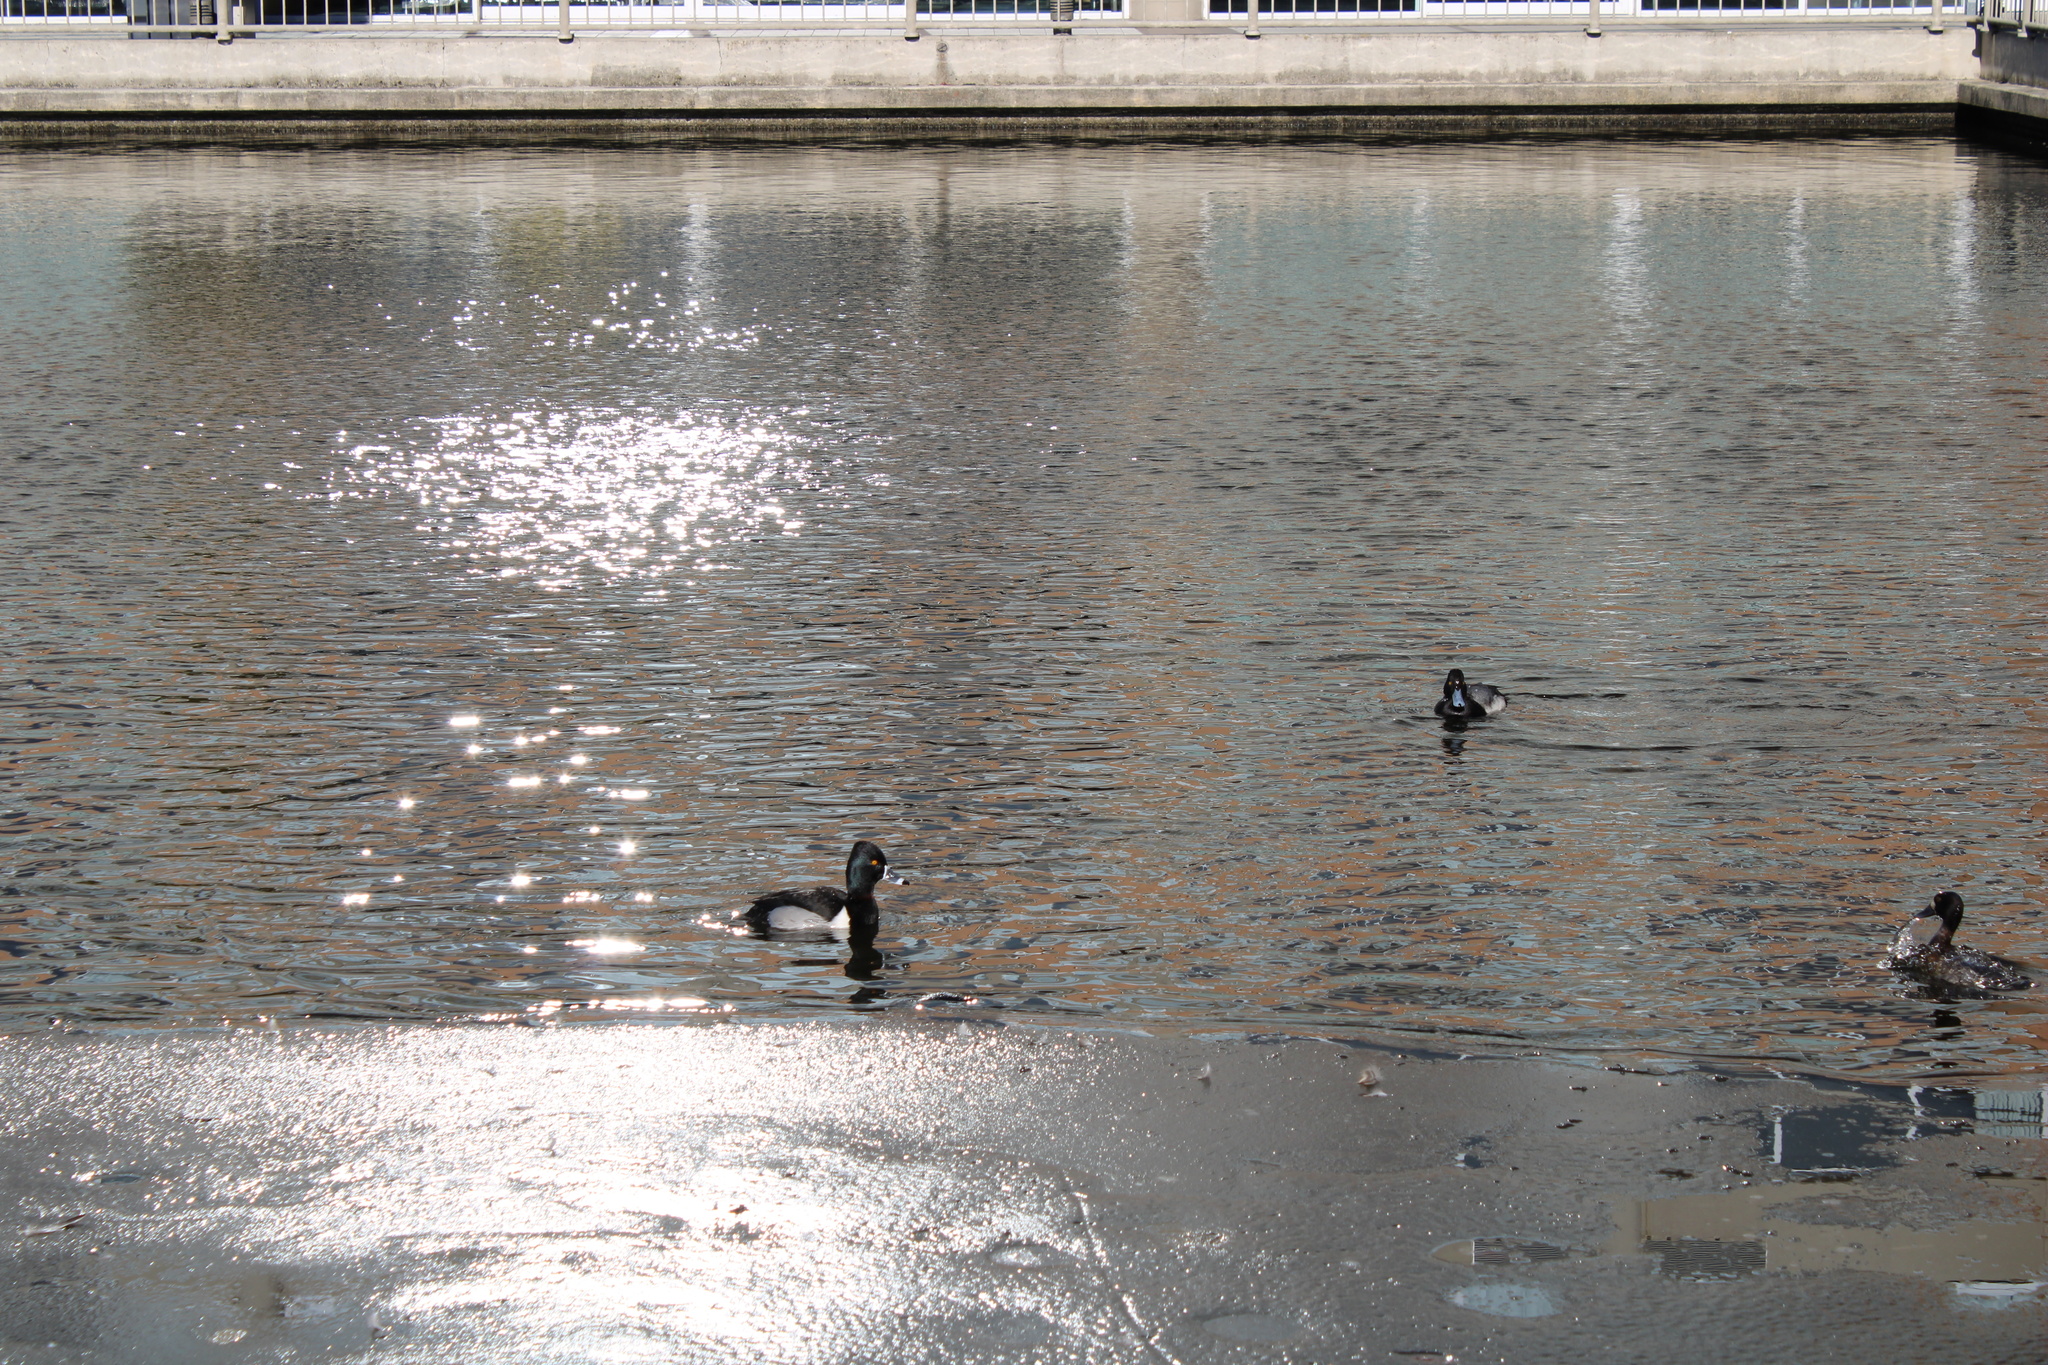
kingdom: Animalia
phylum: Chordata
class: Aves
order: Anseriformes
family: Anatidae
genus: Aythya
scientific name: Aythya collaris
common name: Ring-necked duck
